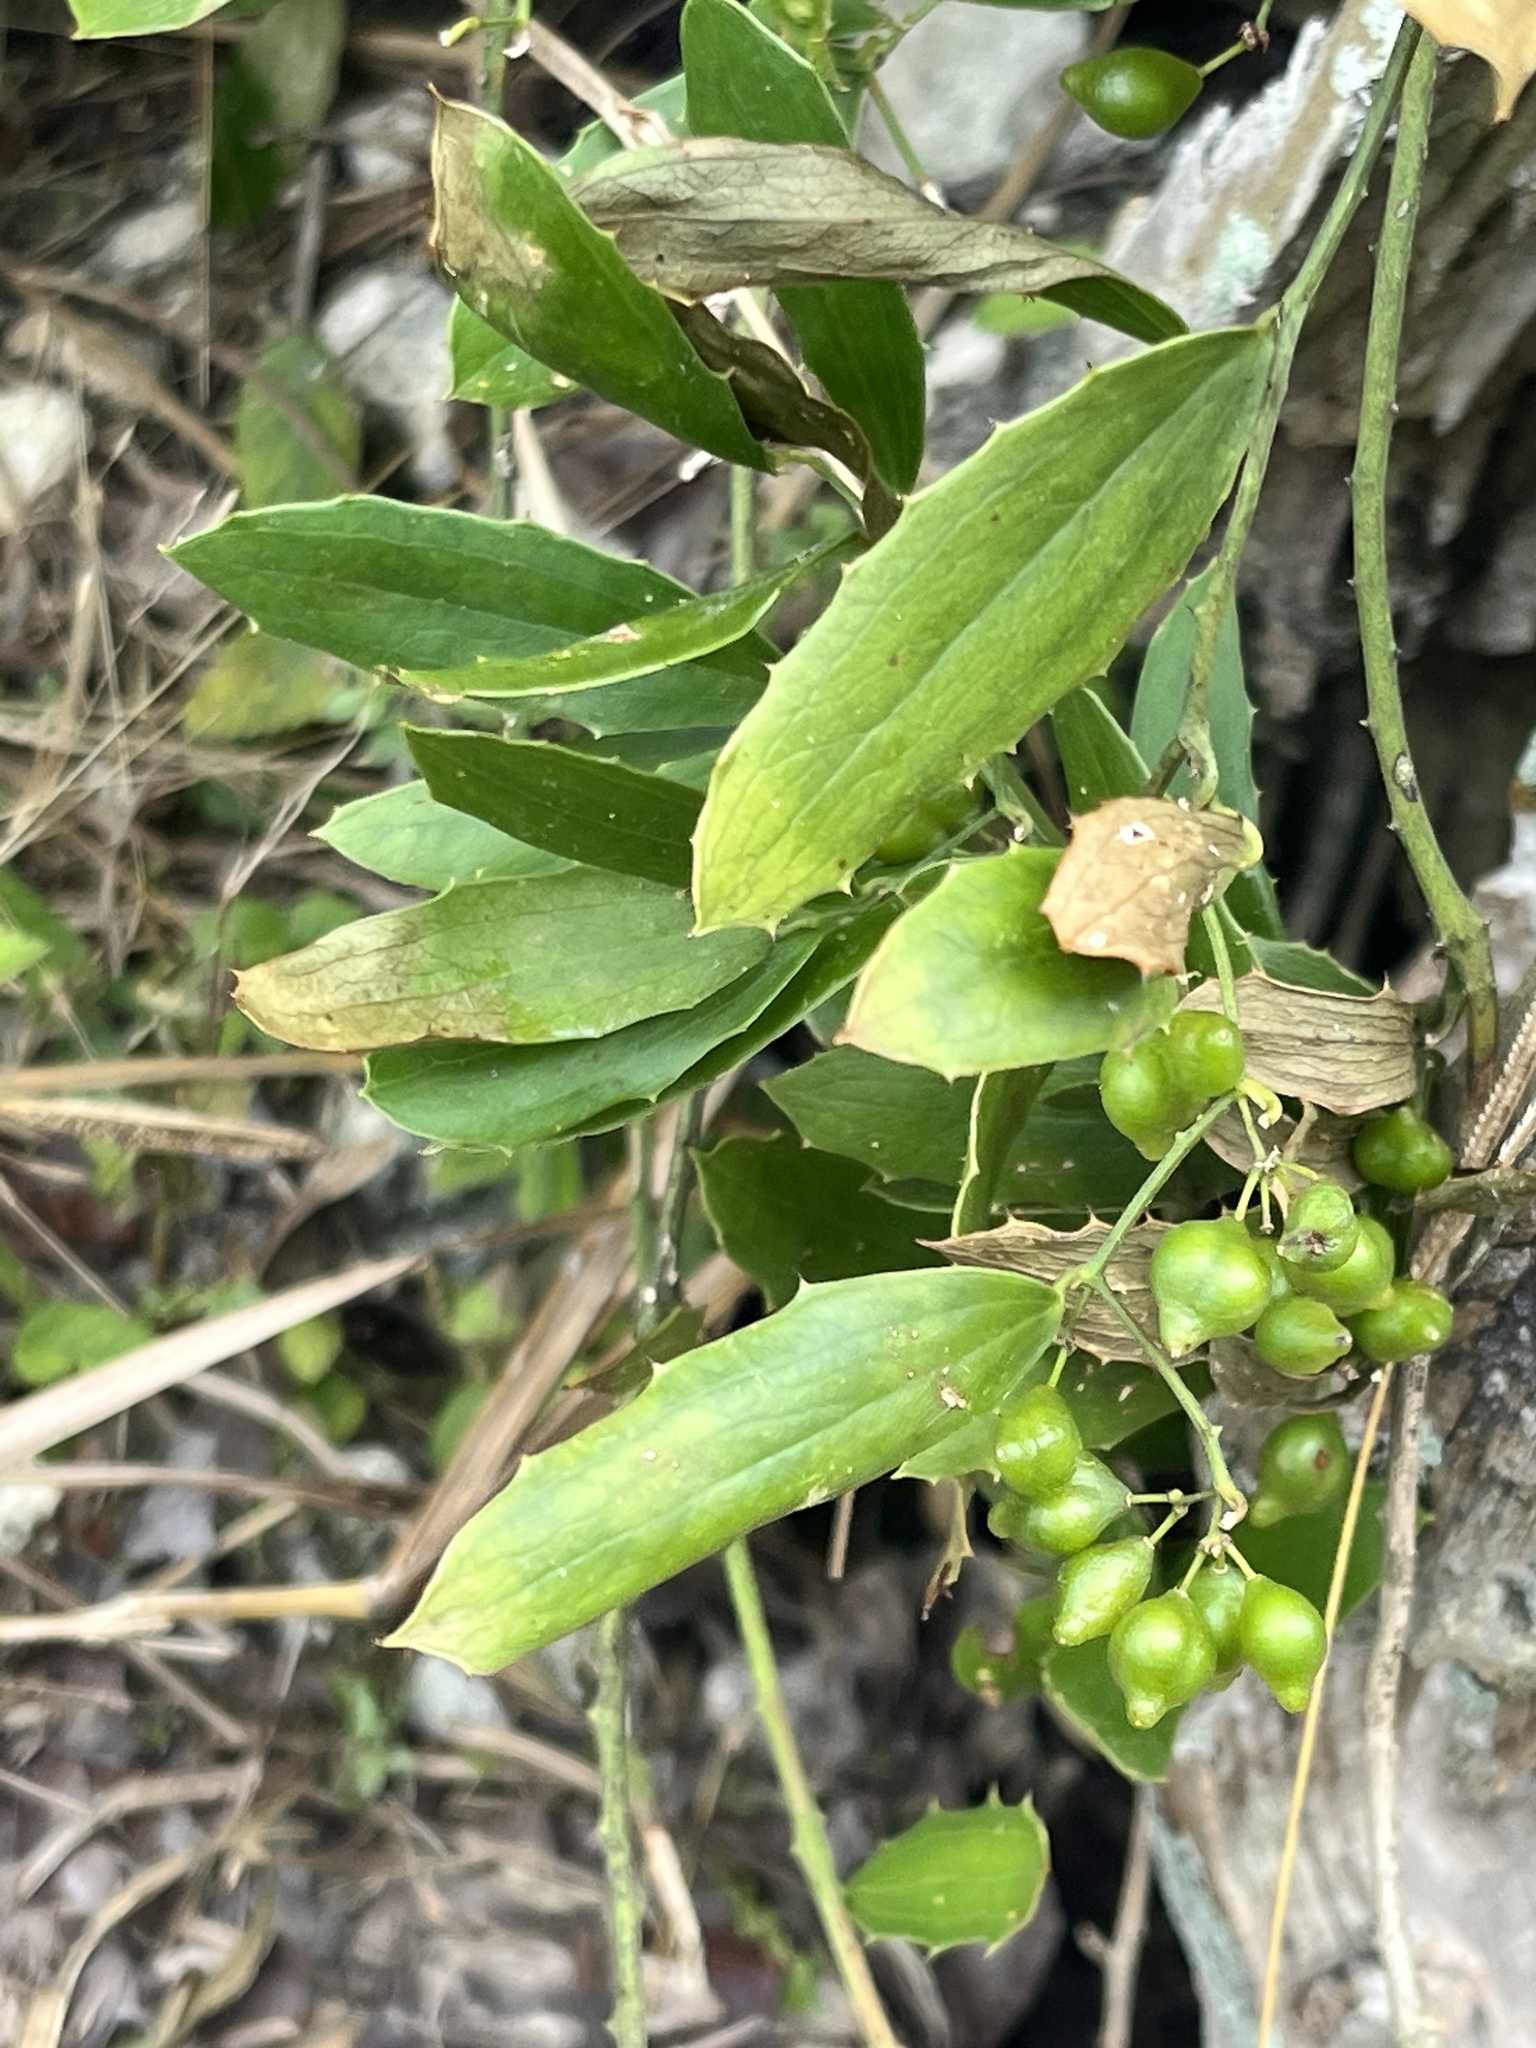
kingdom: Plantae
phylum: Tracheophyta
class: Liliopsida
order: Liliales
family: Smilacaceae
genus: Smilax
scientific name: Smilax havanensis
